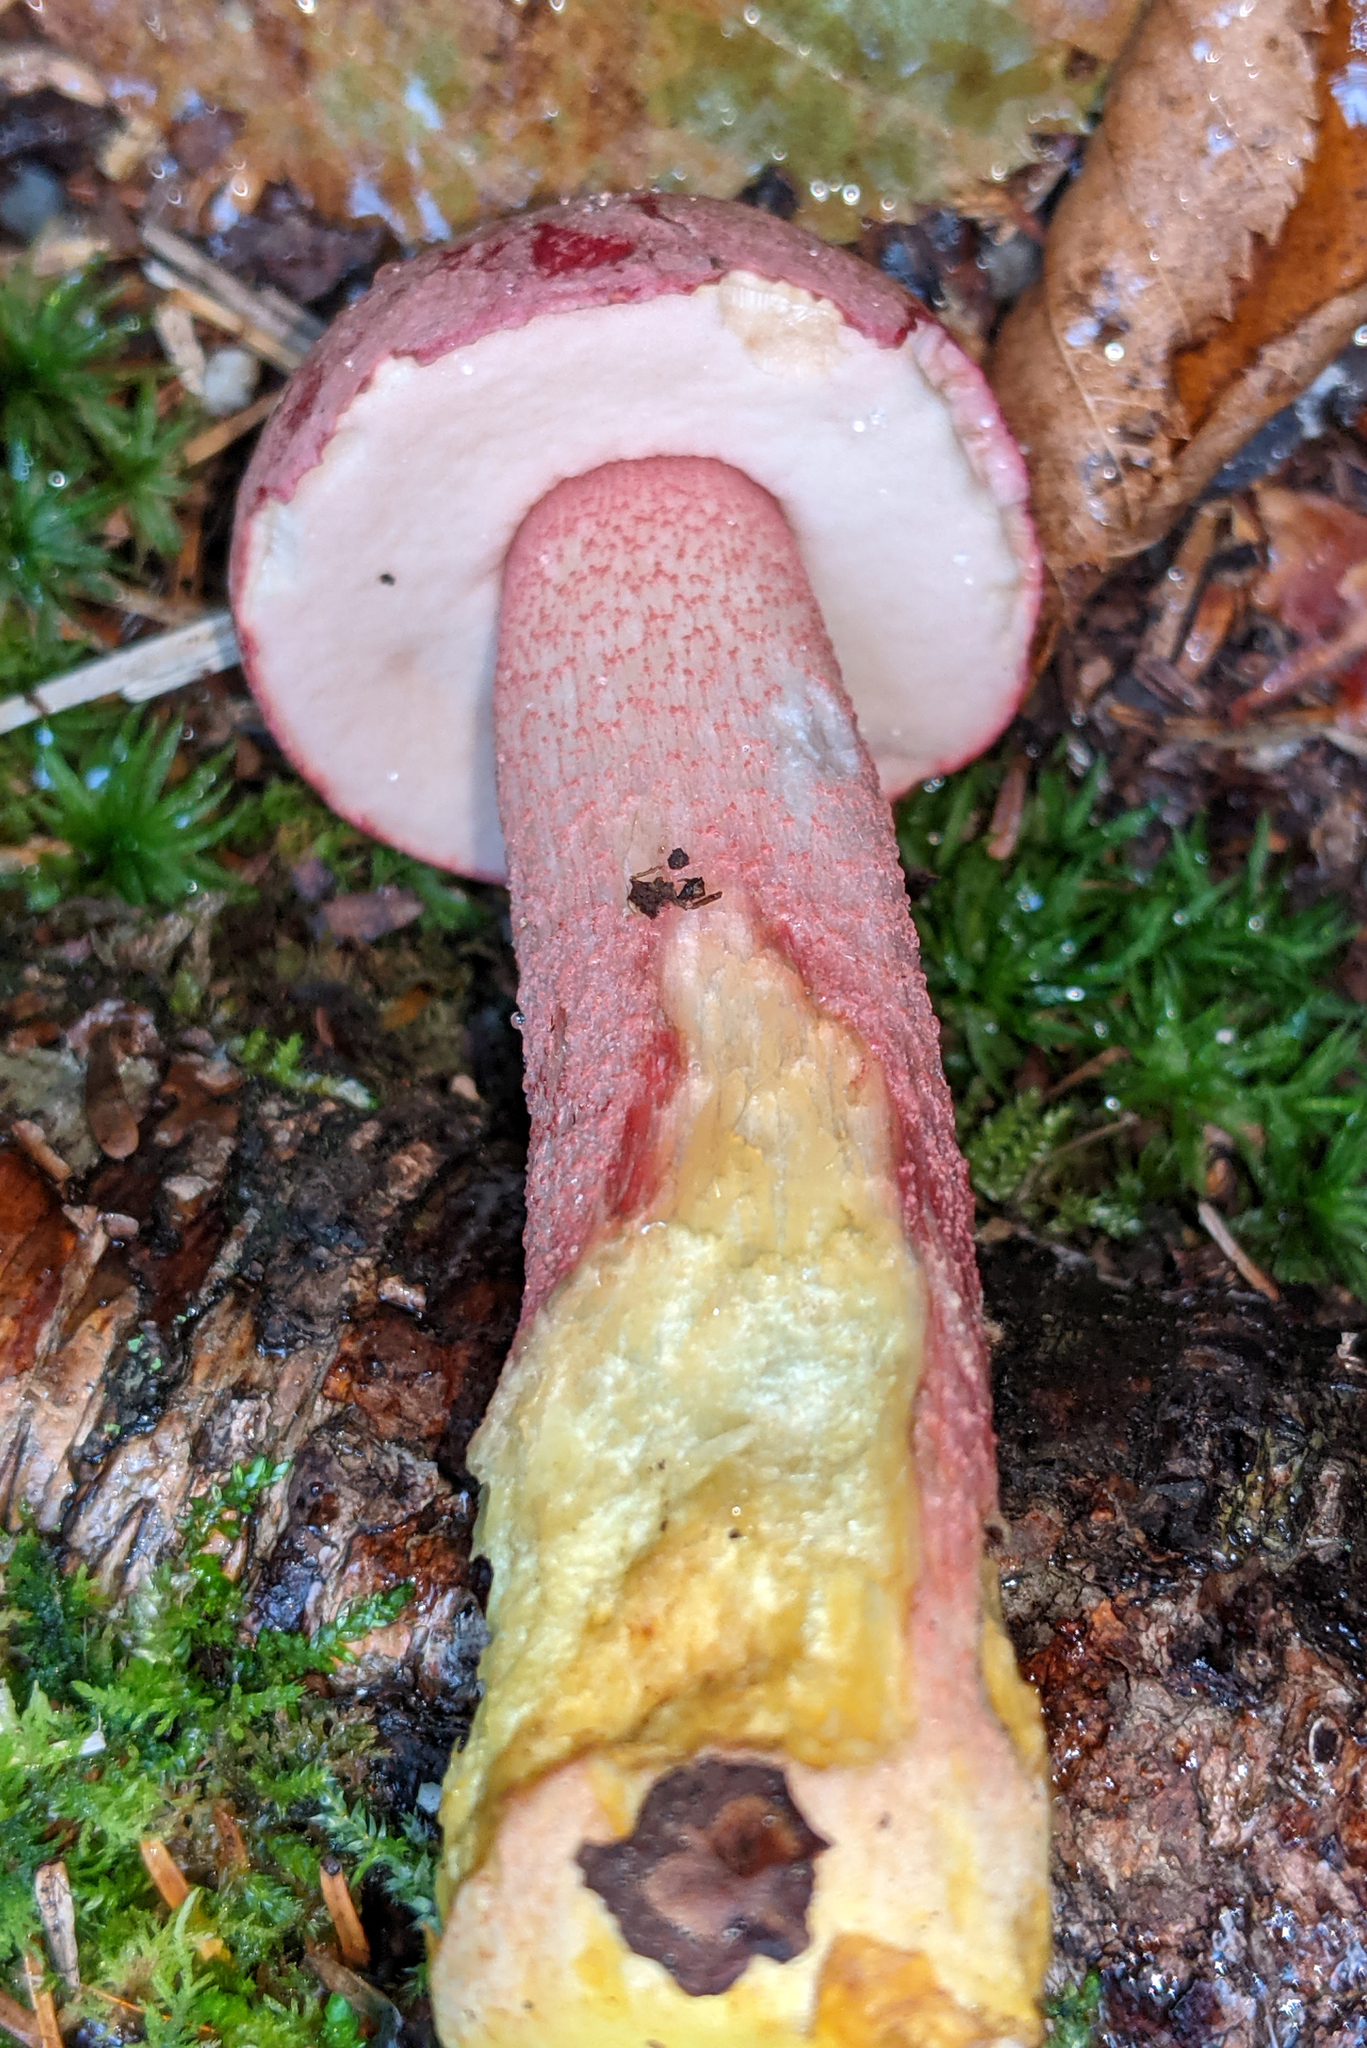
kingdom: Fungi
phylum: Basidiomycota
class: Agaricomycetes
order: Boletales
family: Boletaceae
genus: Harrya
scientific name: Harrya chromipes
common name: Chrome-footed bolete
